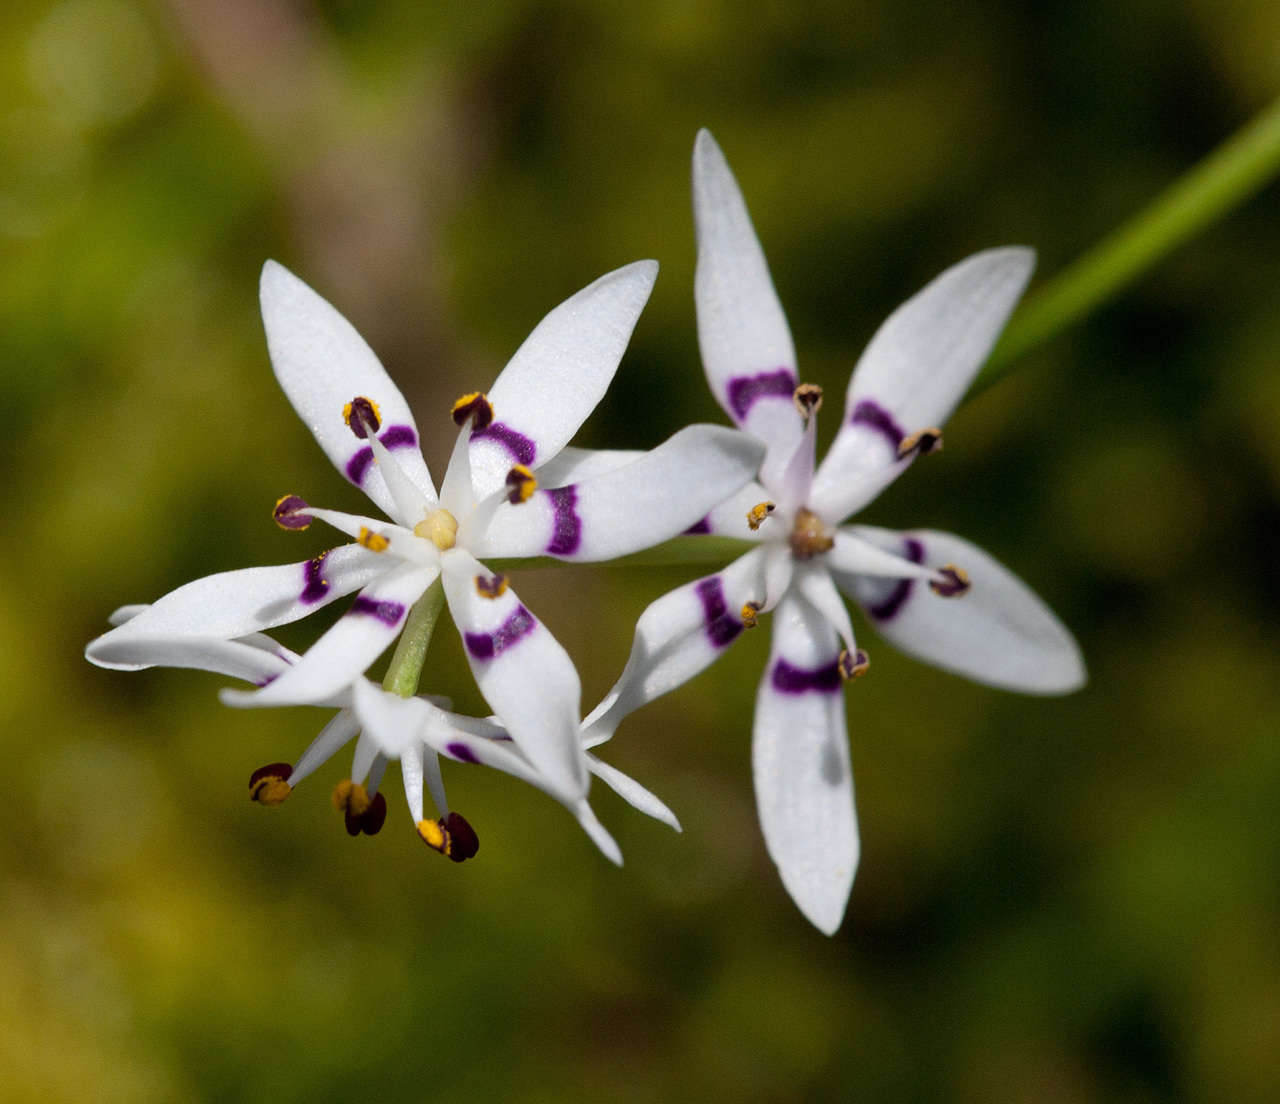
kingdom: Plantae
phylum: Tracheophyta
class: Liliopsida
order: Liliales
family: Colchicaceae
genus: Wurmbea
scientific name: Wurmbea dioica
